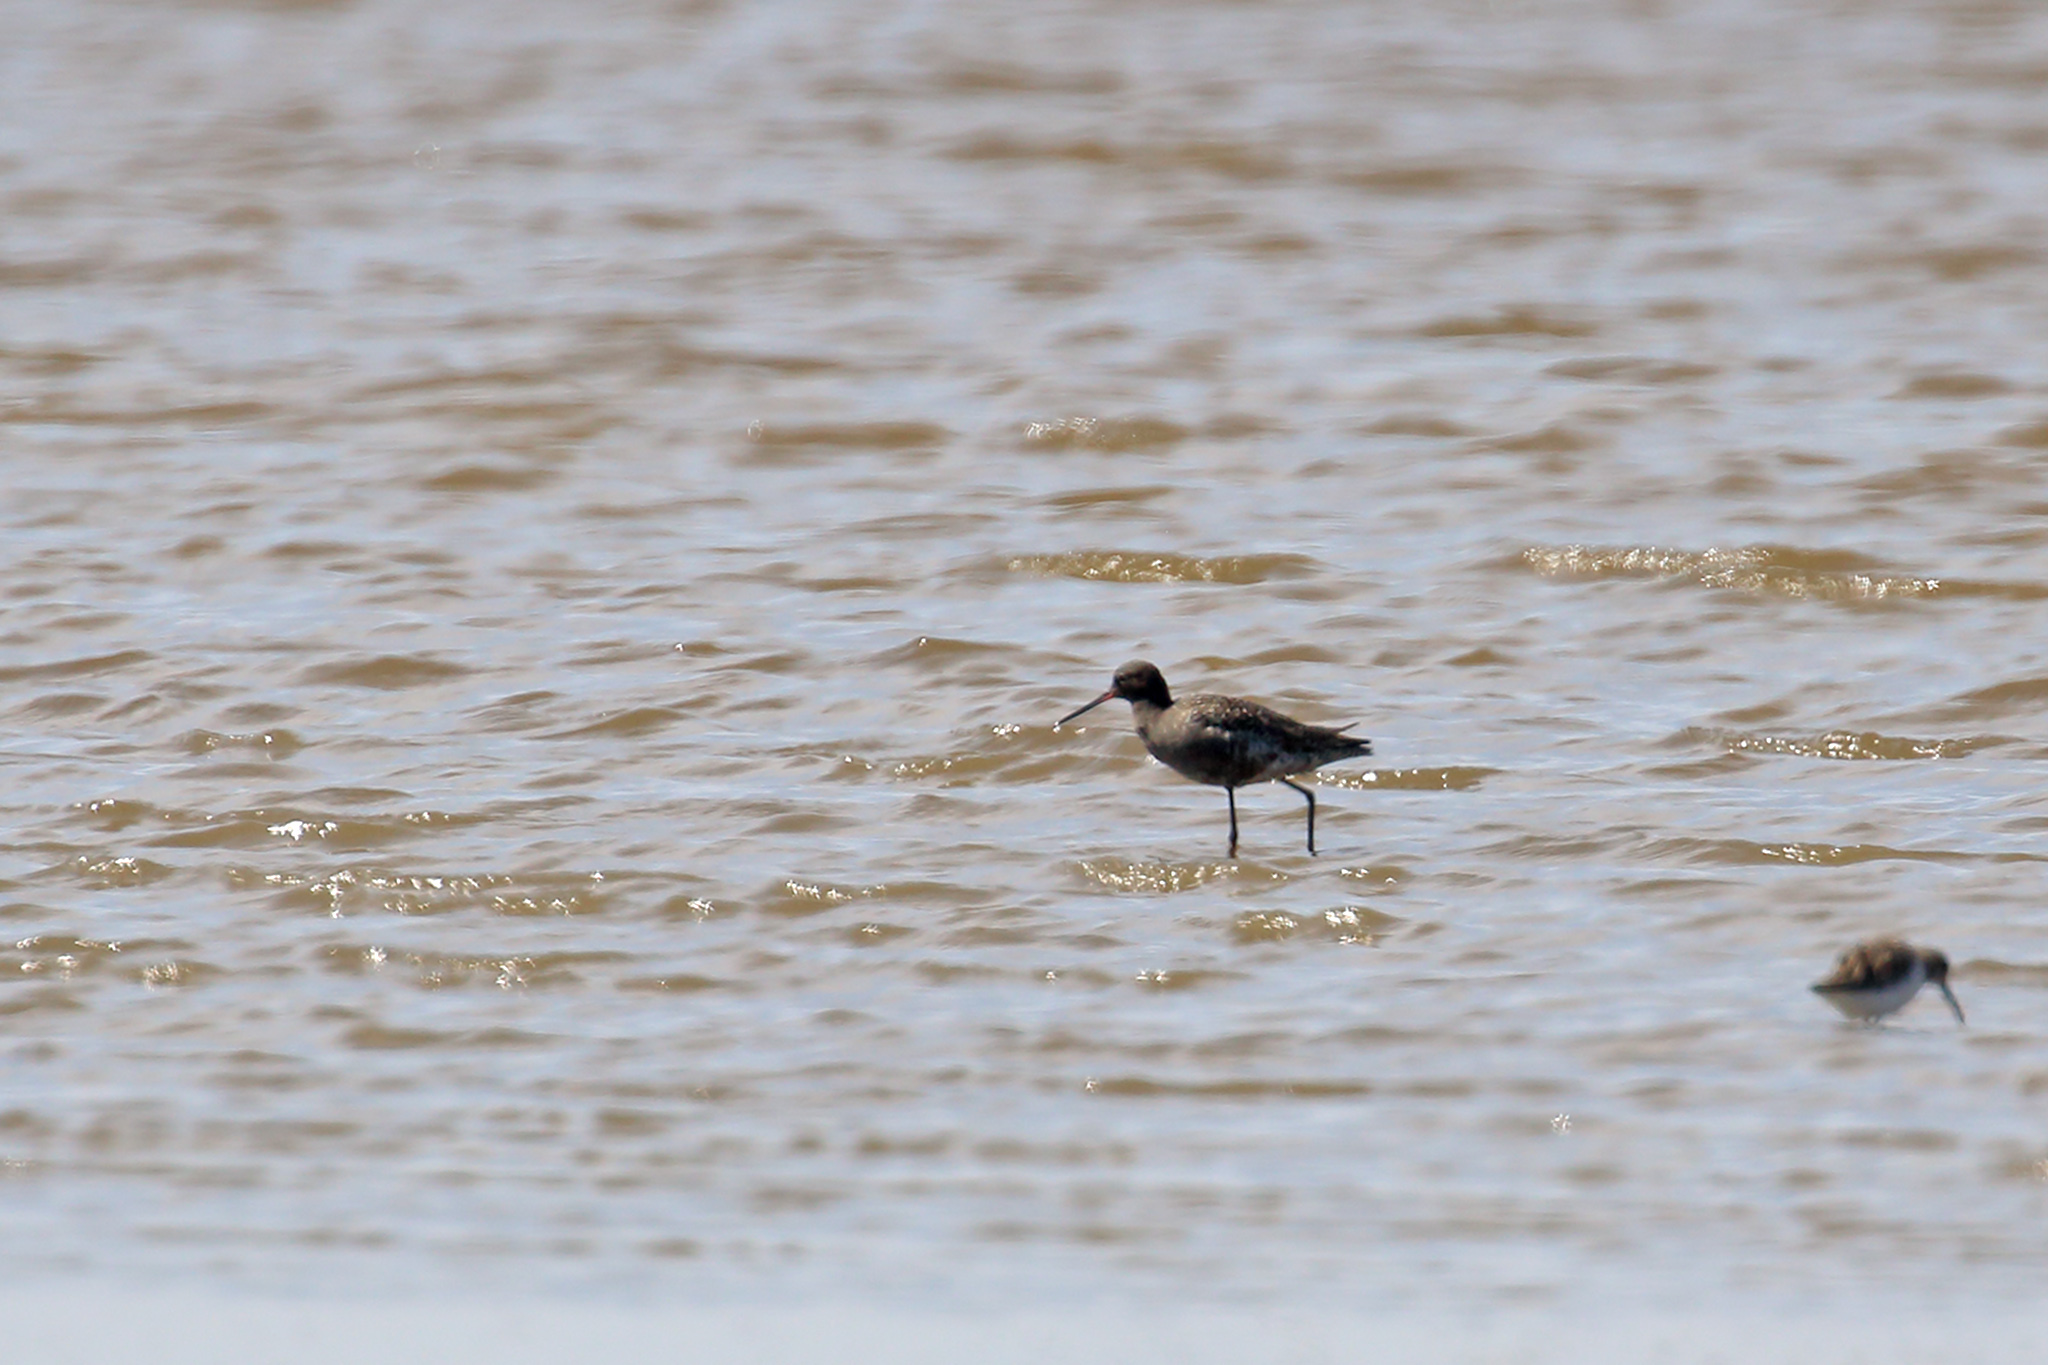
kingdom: Animalia
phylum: Chordata
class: Aves
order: Charadriiformes
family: Scolopacidae
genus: Tringa
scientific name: Tringa erythropus
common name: Spotted redshank
